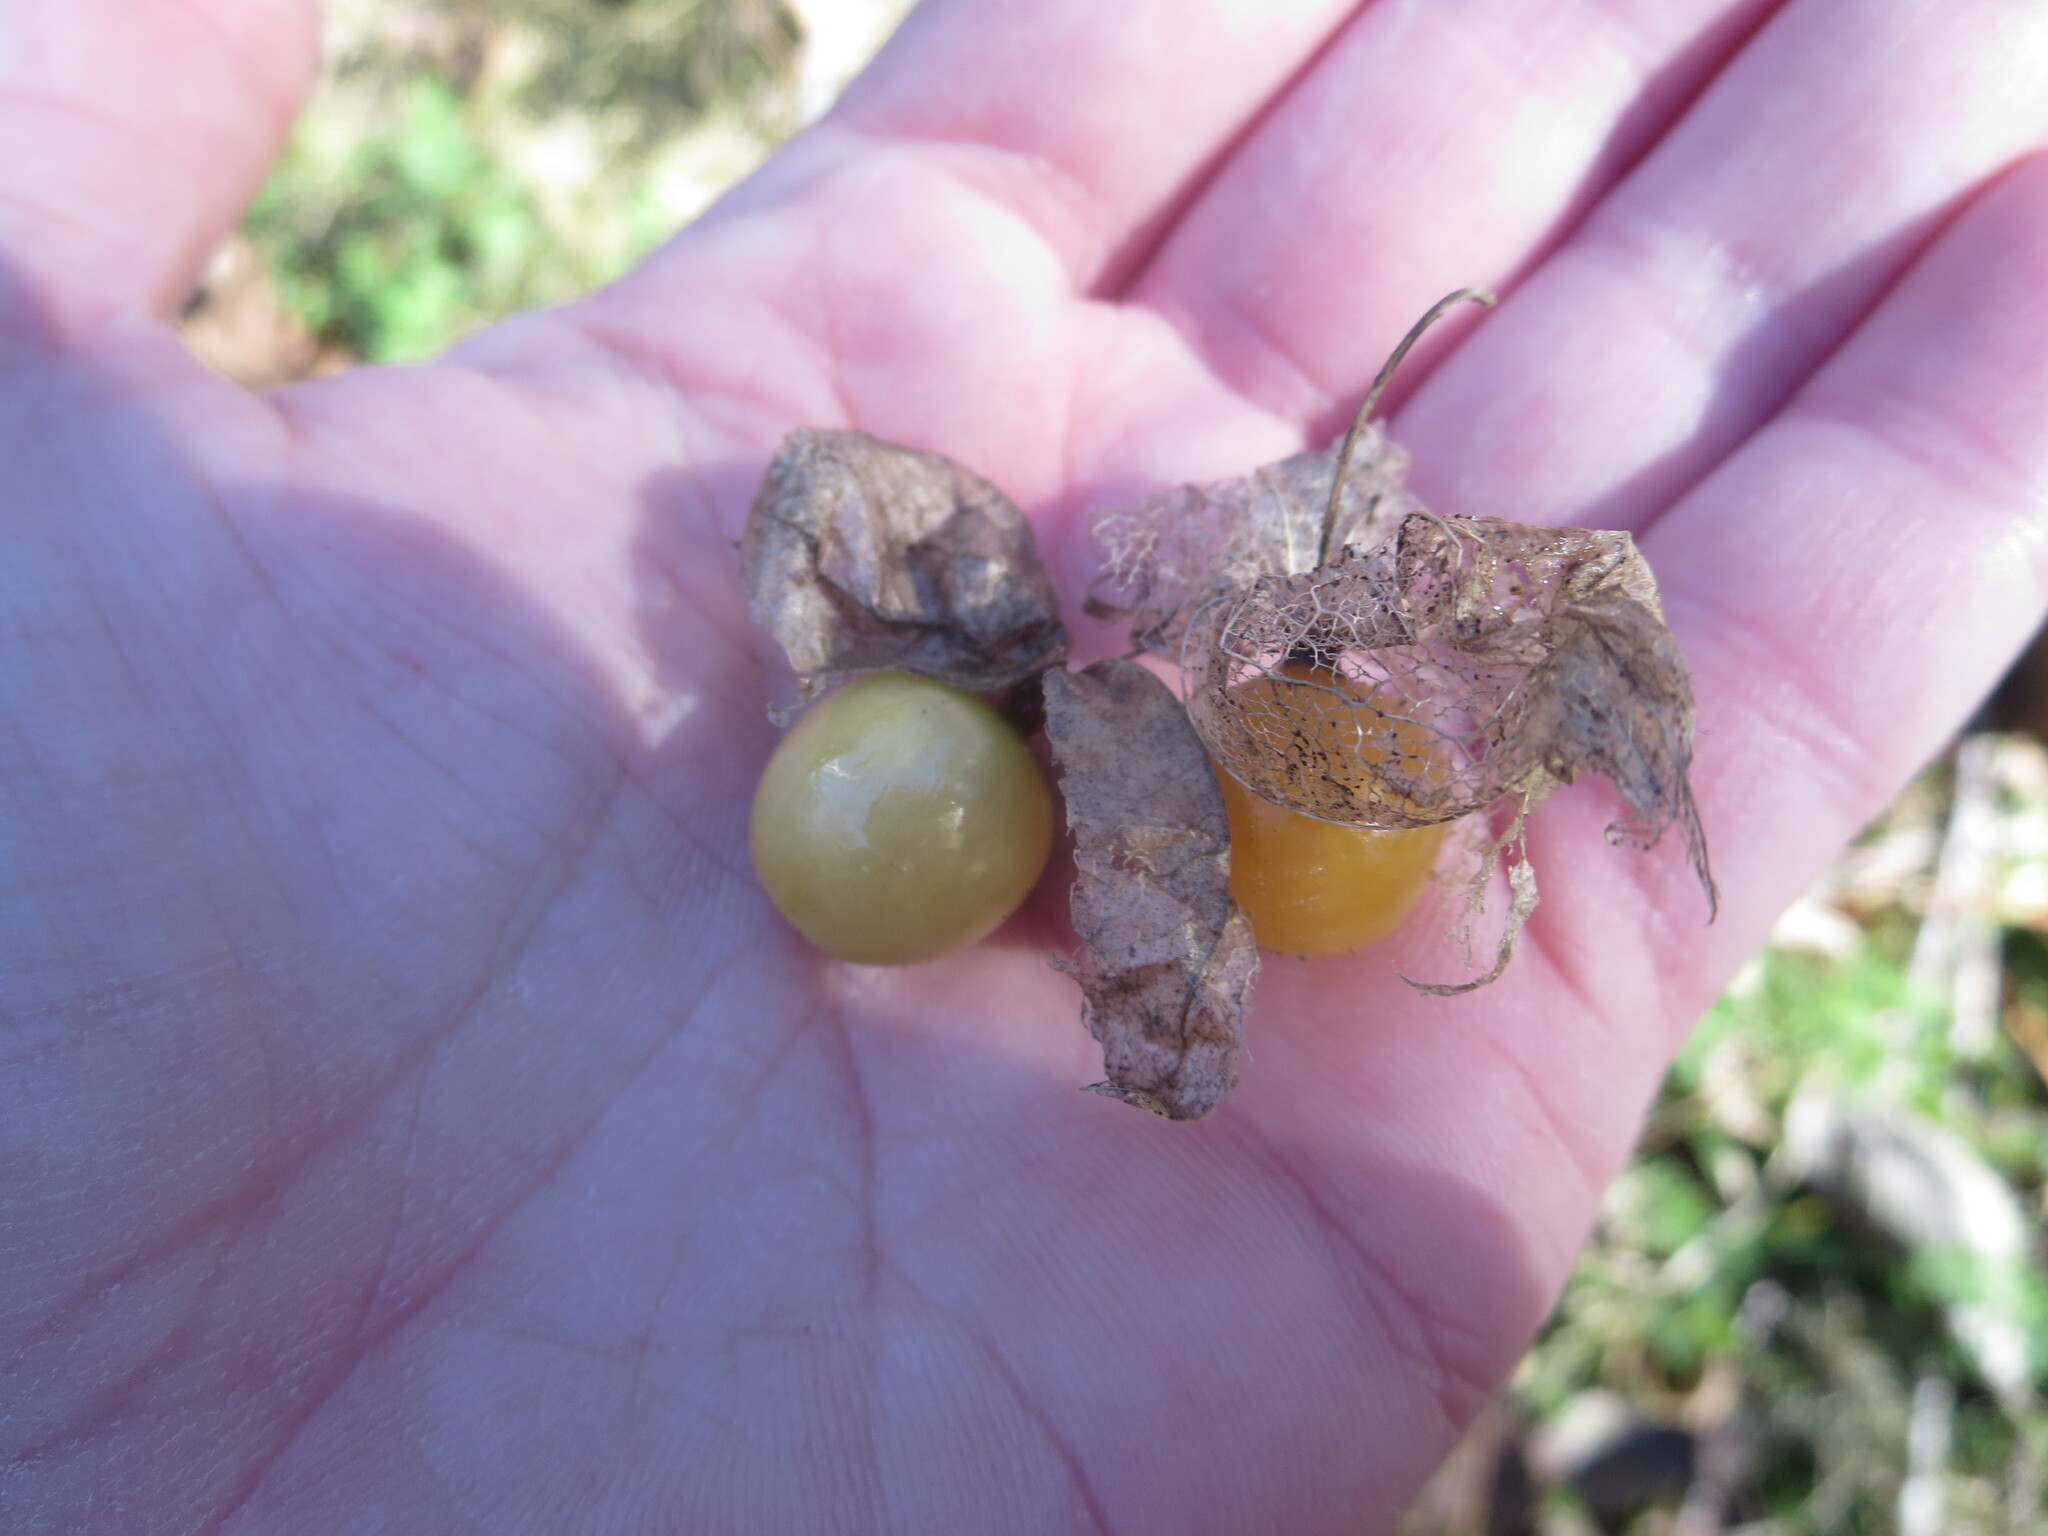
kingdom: Plantae
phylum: Tracheophyta
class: Magnoliopsida
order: Solanales
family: Solanaceae
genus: Physalis
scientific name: Physalis angulata
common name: Angular winter-cherry
